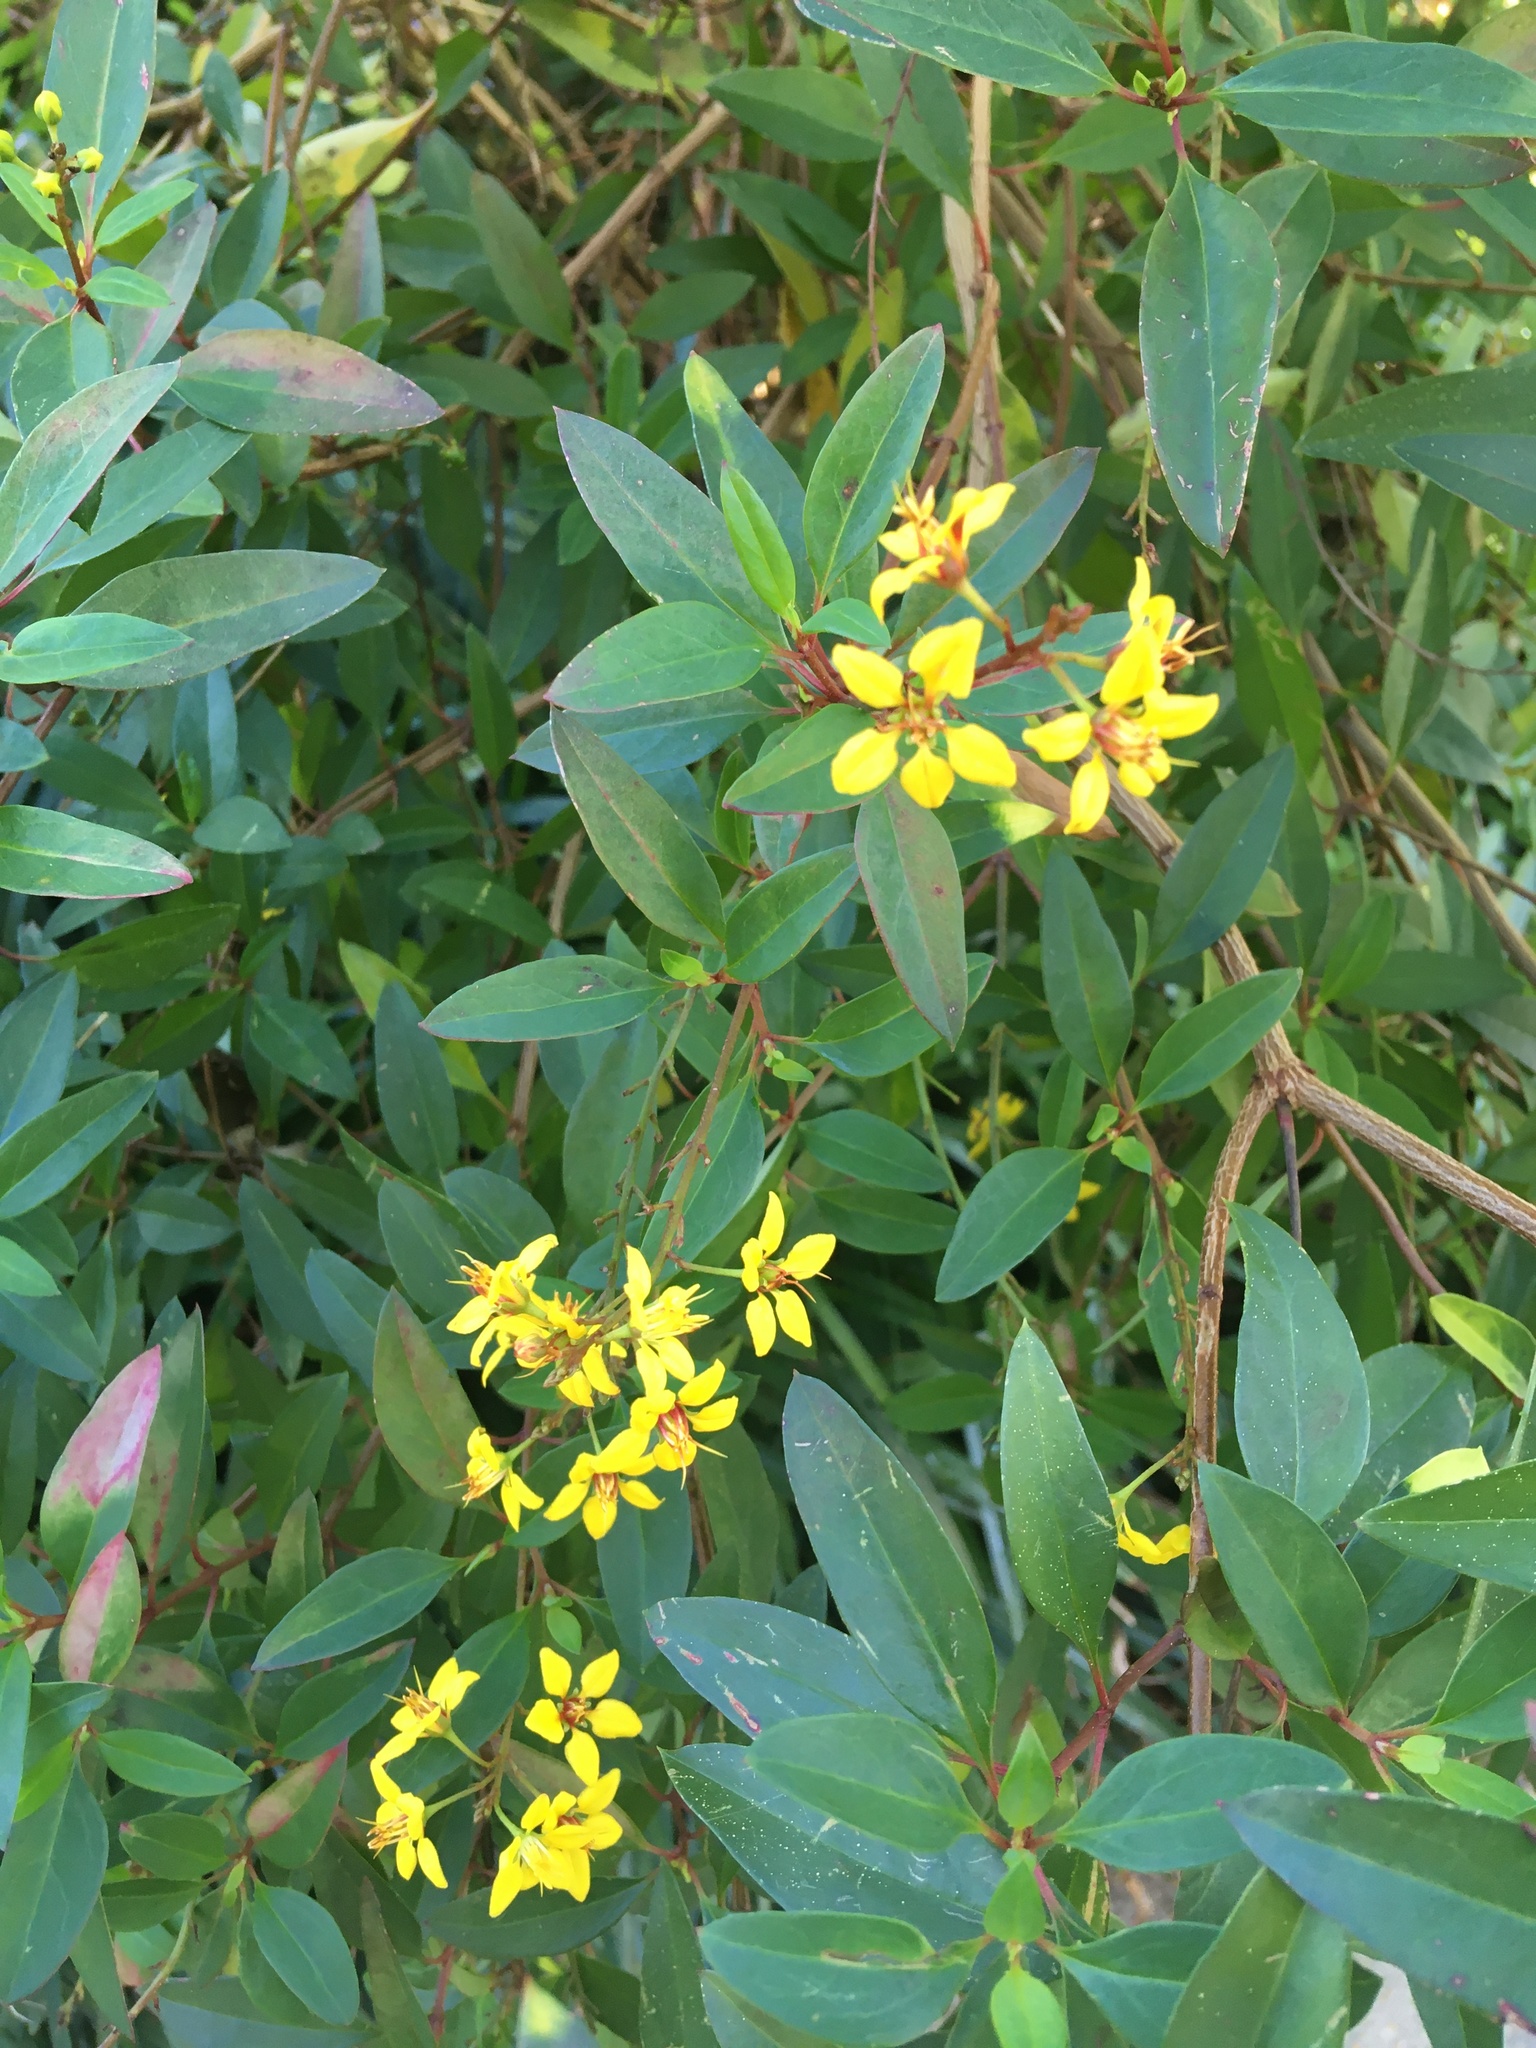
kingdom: Plantae
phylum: Tracheophyta
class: Magnoliopsida
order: Malpighiales
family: Malpighiaceae
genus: Galphimia
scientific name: Galphimia gracilis
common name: Slender goldshower
